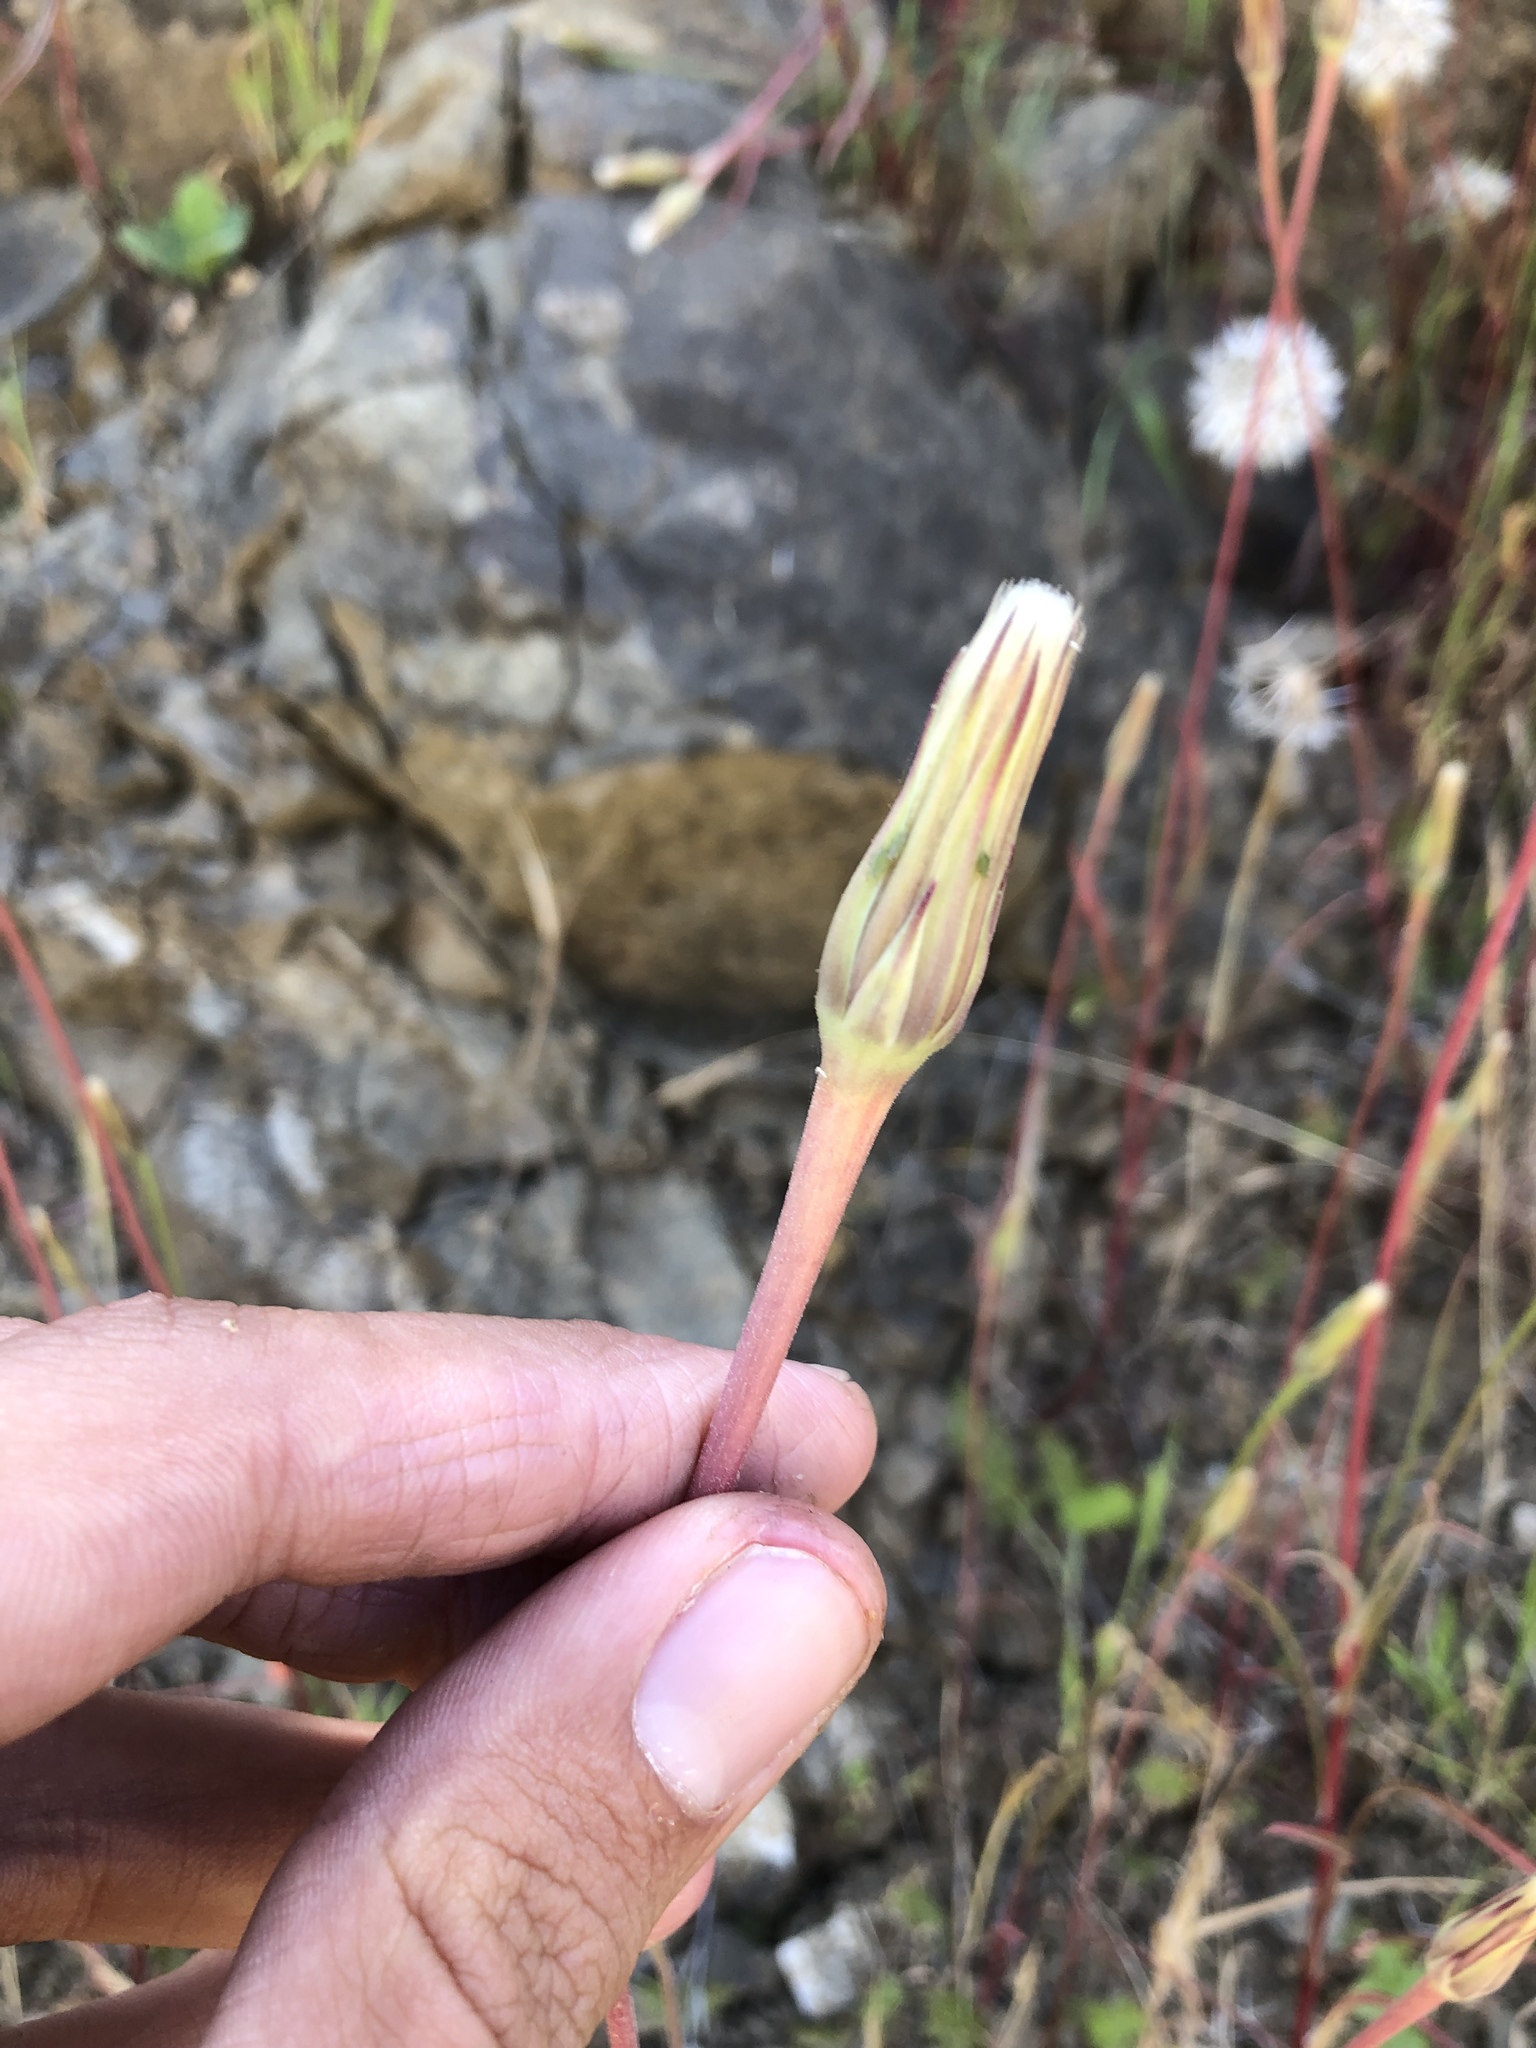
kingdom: Plantae
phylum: Tracheophyta
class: Magnoliopsida
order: Asterales
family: Asteraceae
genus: Microseris
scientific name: Microseris lindleyi
